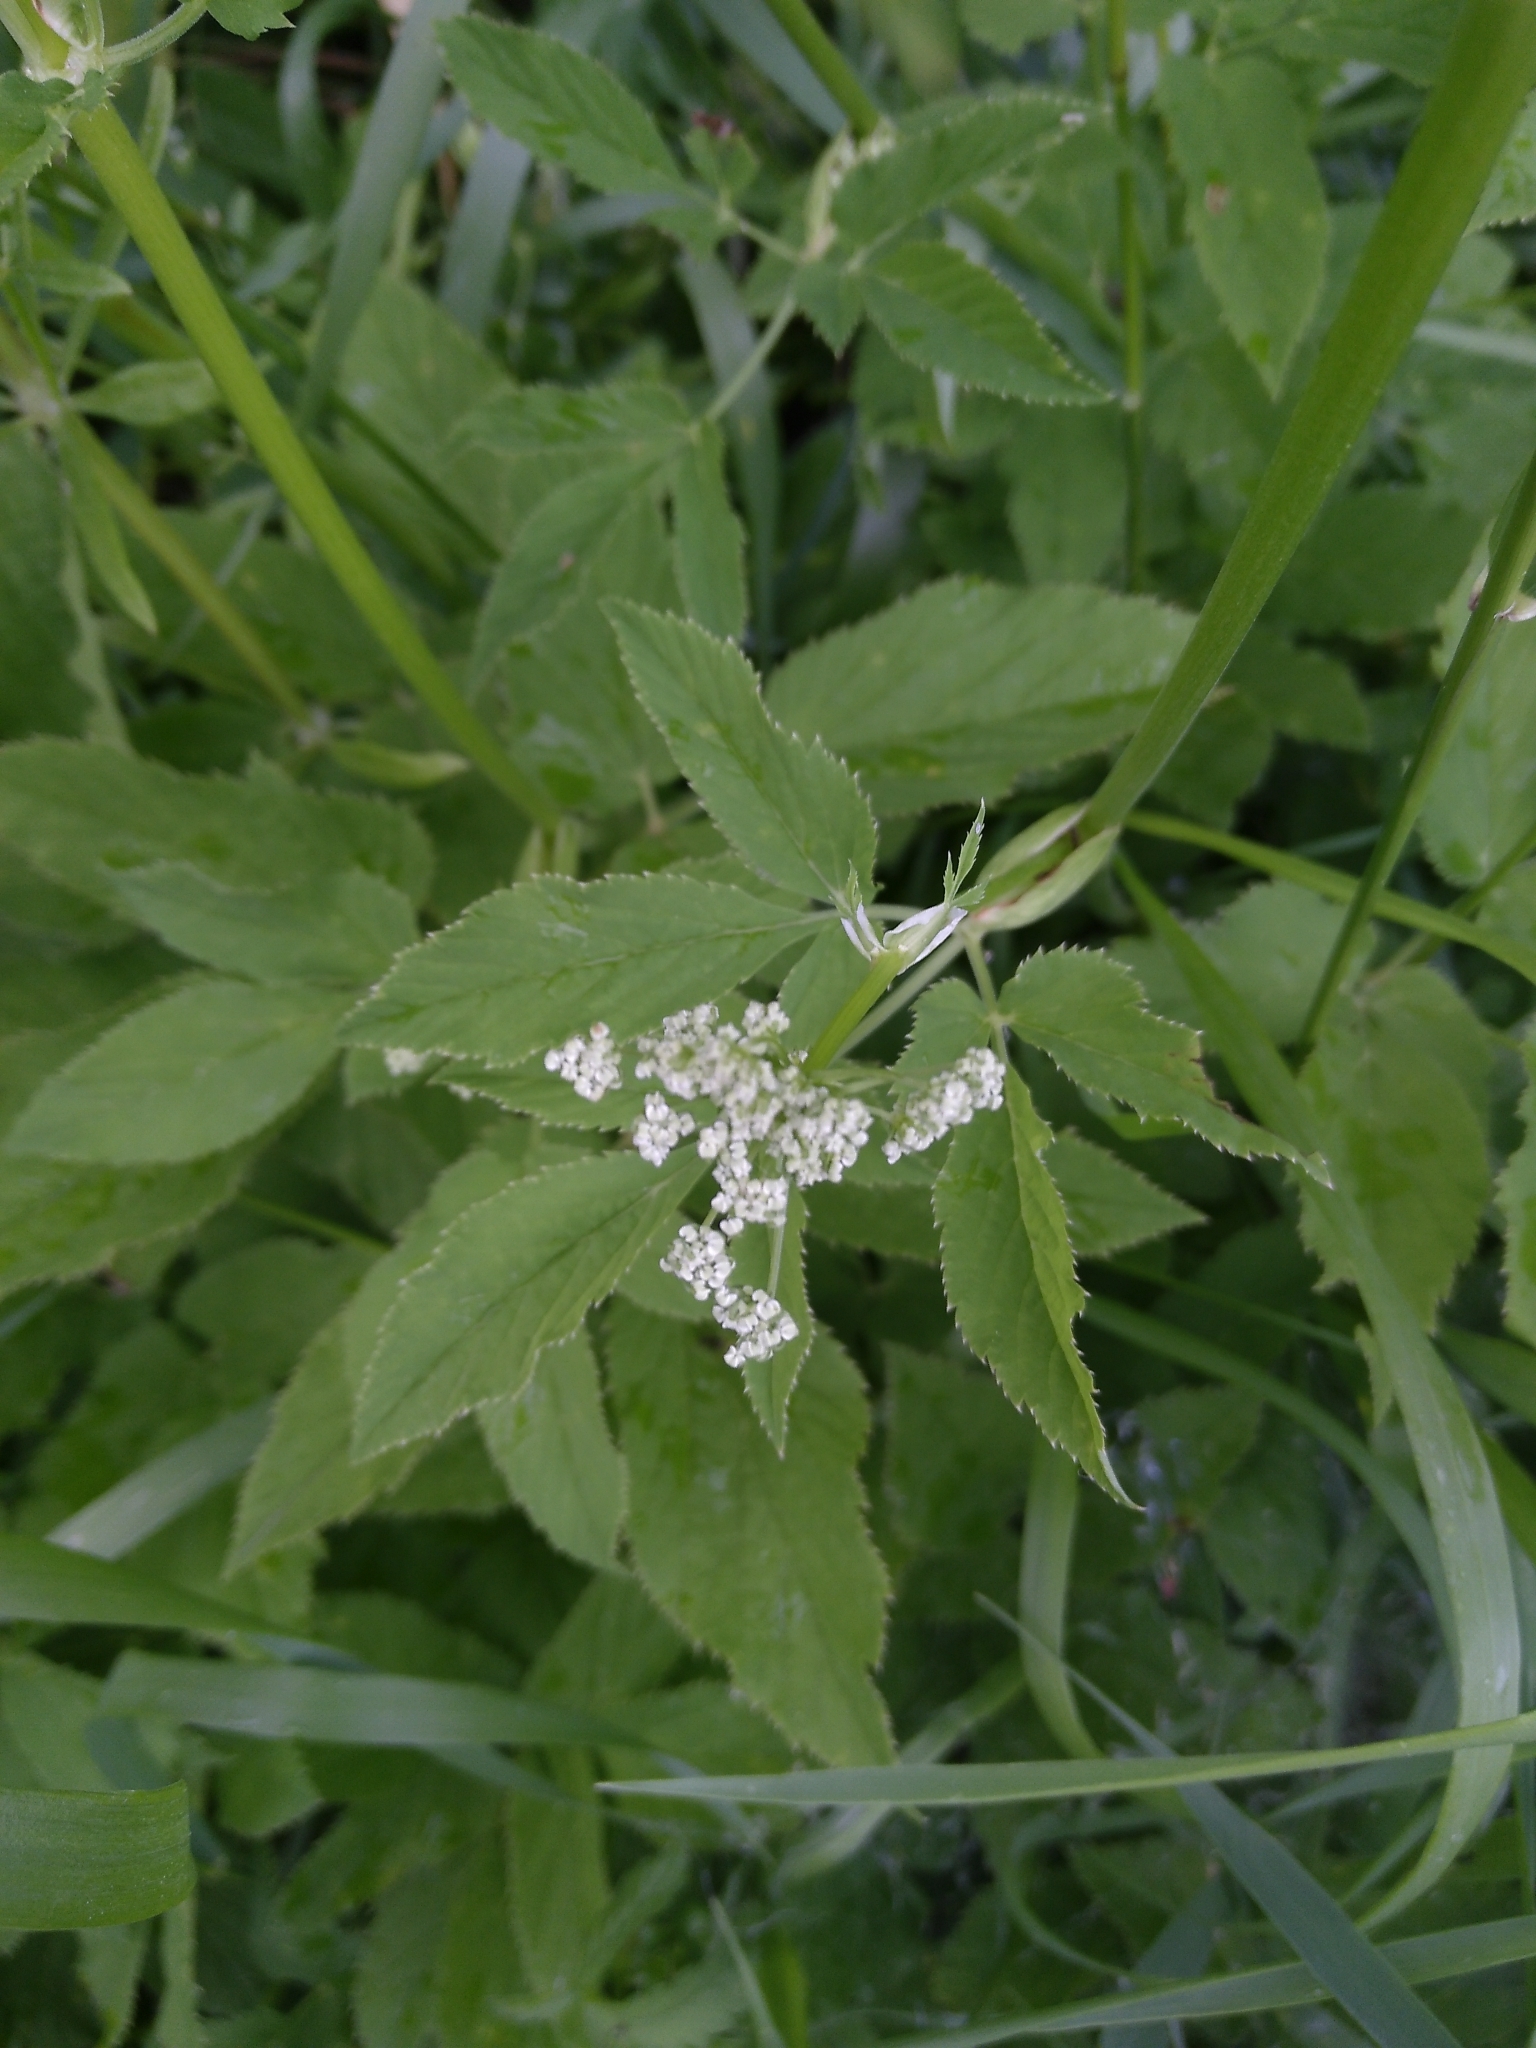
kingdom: Plantae
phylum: Tracheophyta
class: Magnoliopsida
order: Apiales
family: Apiaceae
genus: Aegopodium
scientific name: Aegopodium podagraria
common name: Ground-elder
